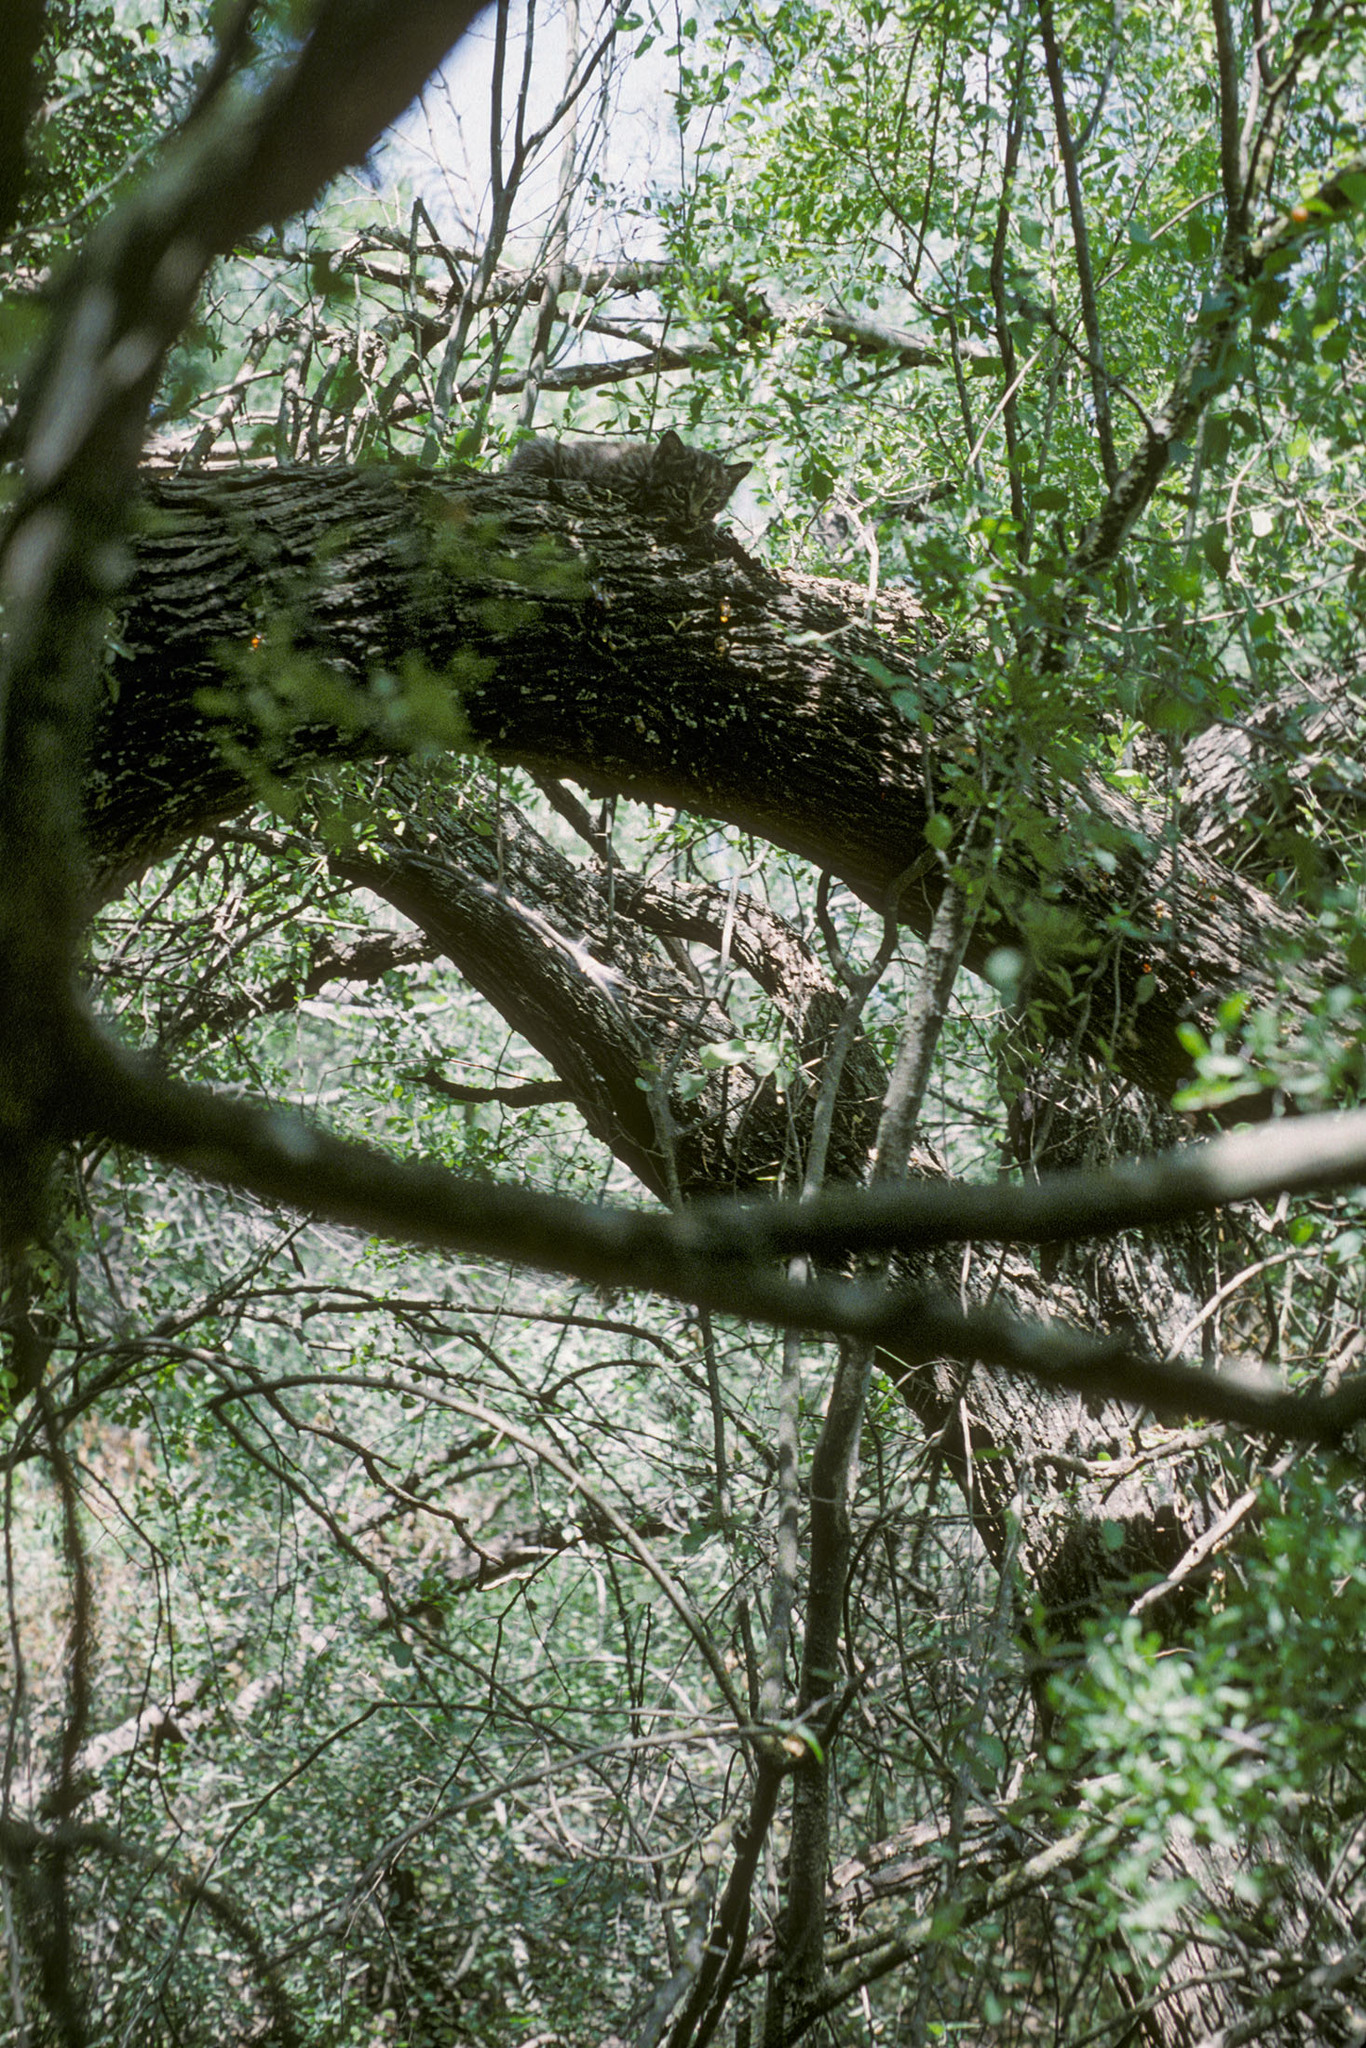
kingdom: Animalia
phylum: Chordata
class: Mammalia
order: Carnivora
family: Felidae
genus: Lynx
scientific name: Lynx rufus
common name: Bobcat
